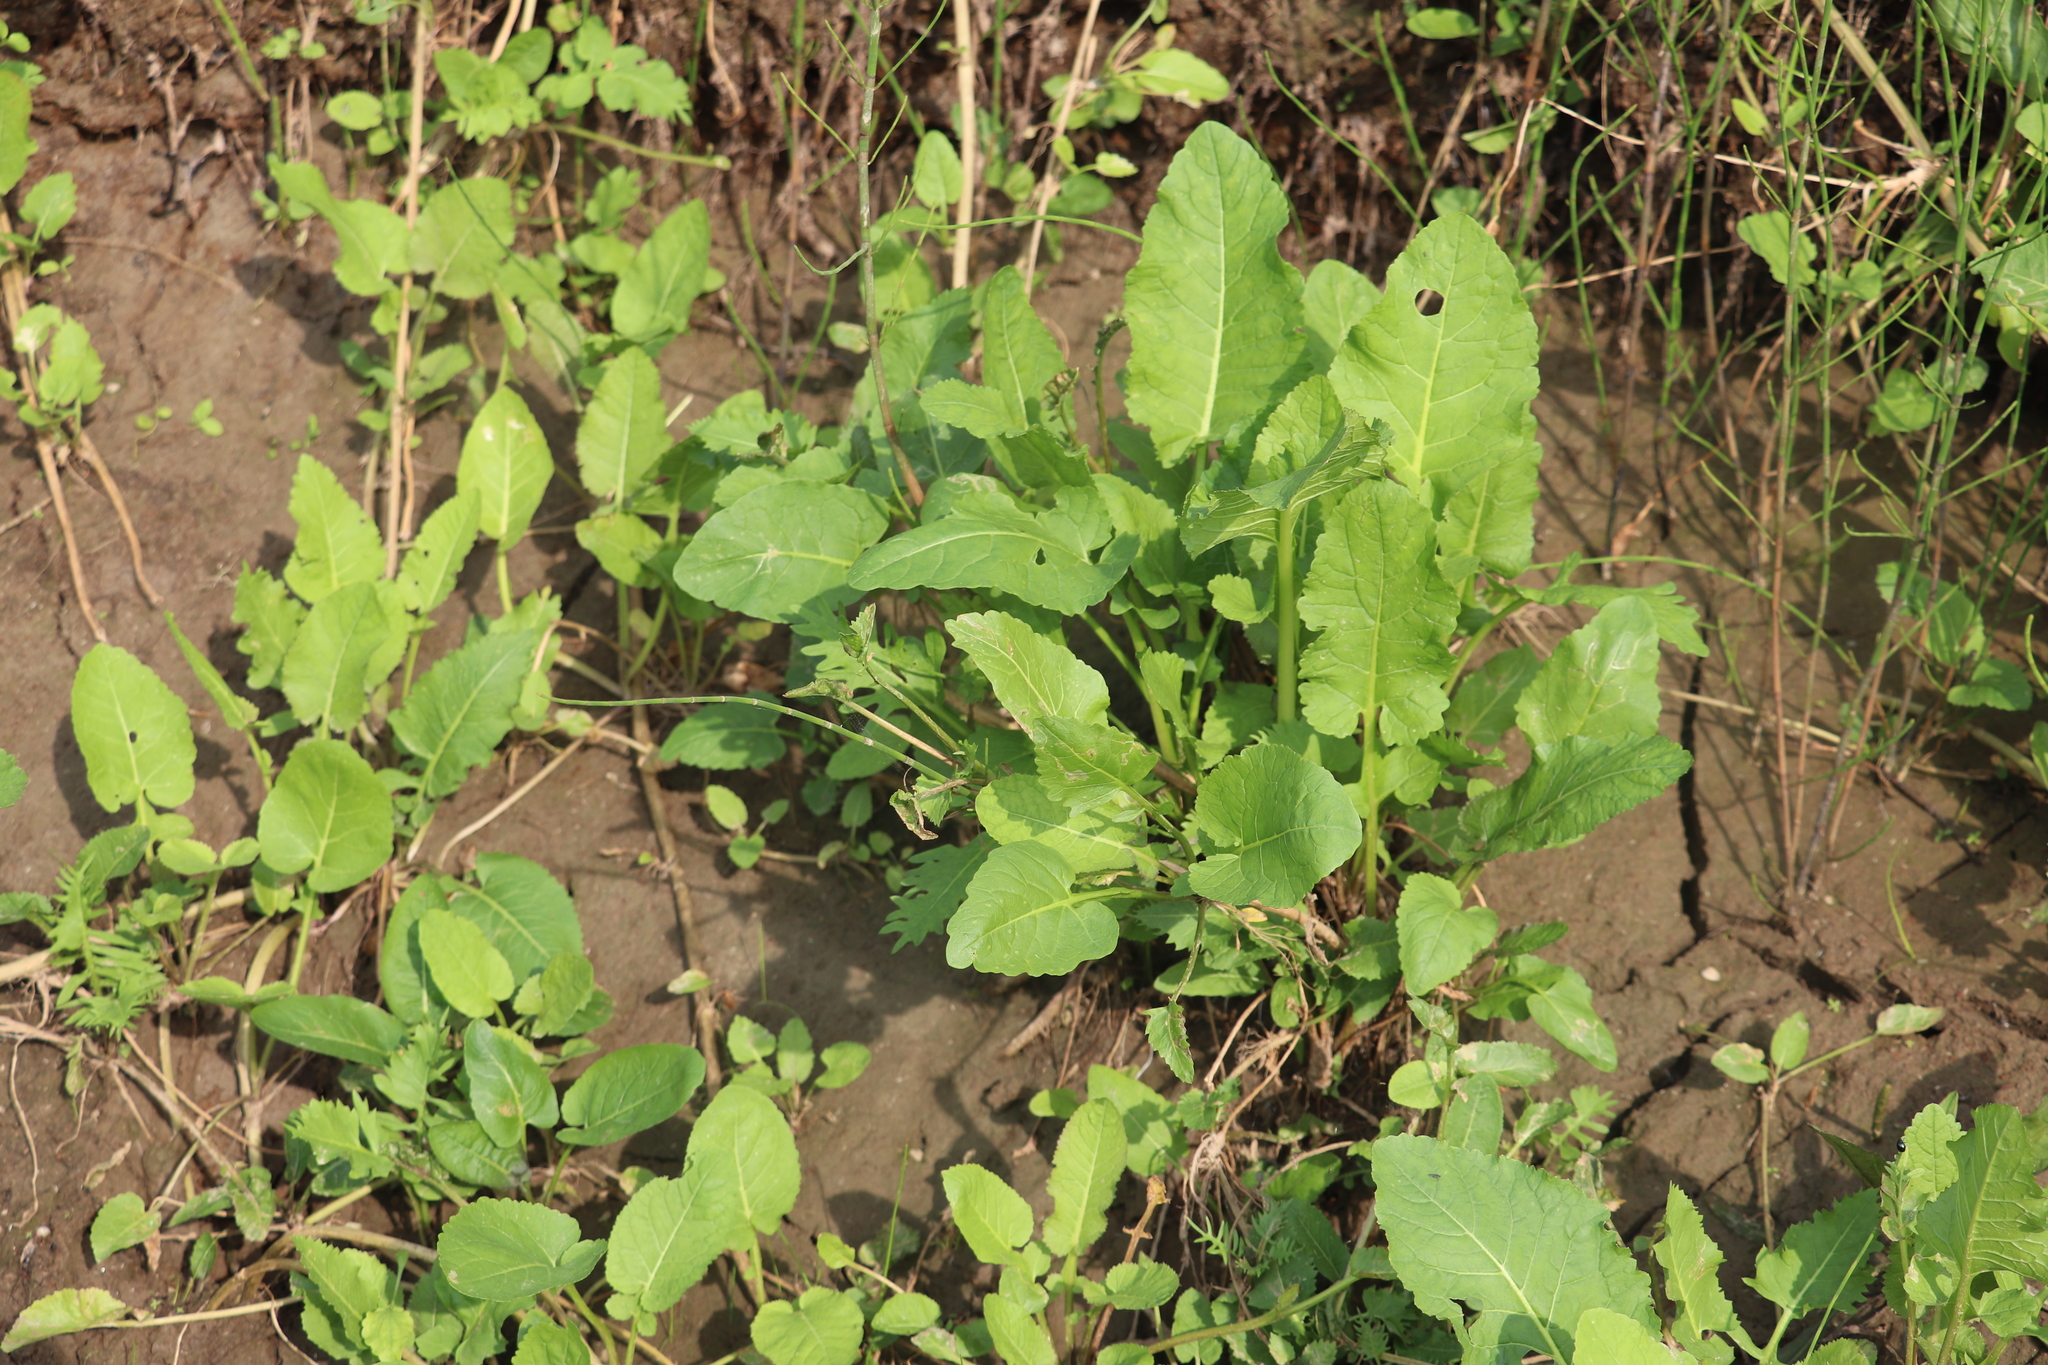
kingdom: Plantae
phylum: Tracheophyta
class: Magnoliopsida
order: Brassicales
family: Brassicaceae
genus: Rorippa
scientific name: Rorippa amphibia
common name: Great yellow-cress
